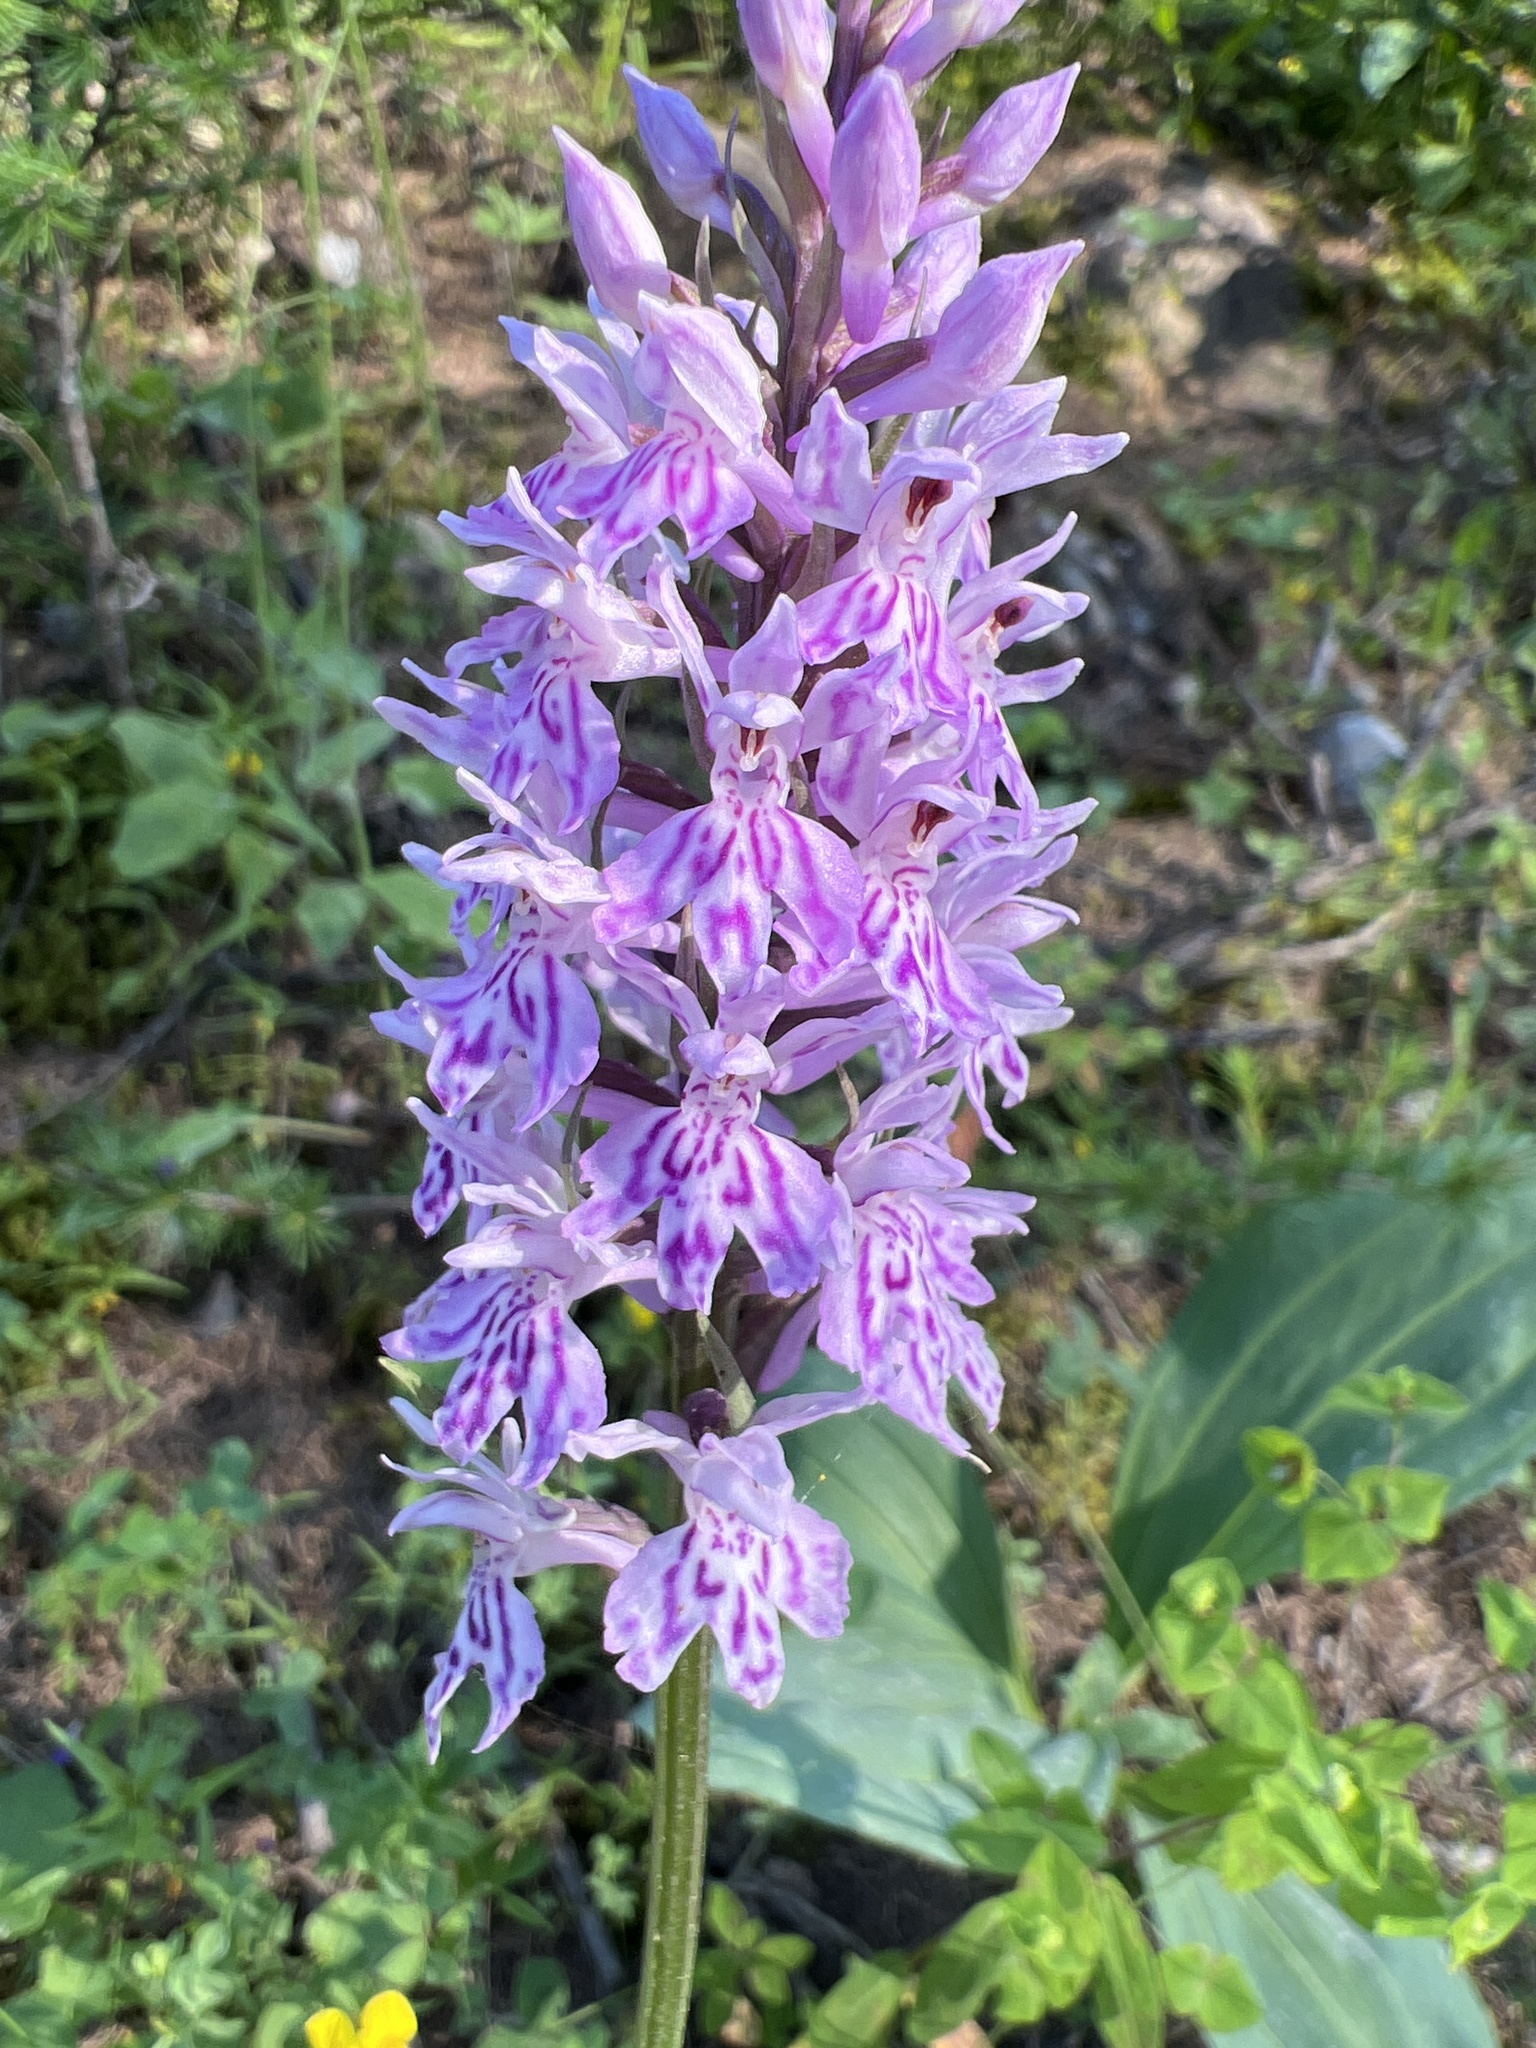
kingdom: Plantae
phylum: Tracheophyta
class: Liliopsida
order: Asparagales
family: Orchidaceae
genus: Dactylorhiza
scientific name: Dactylorhiza maculata
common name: Heath spotted-orchid
